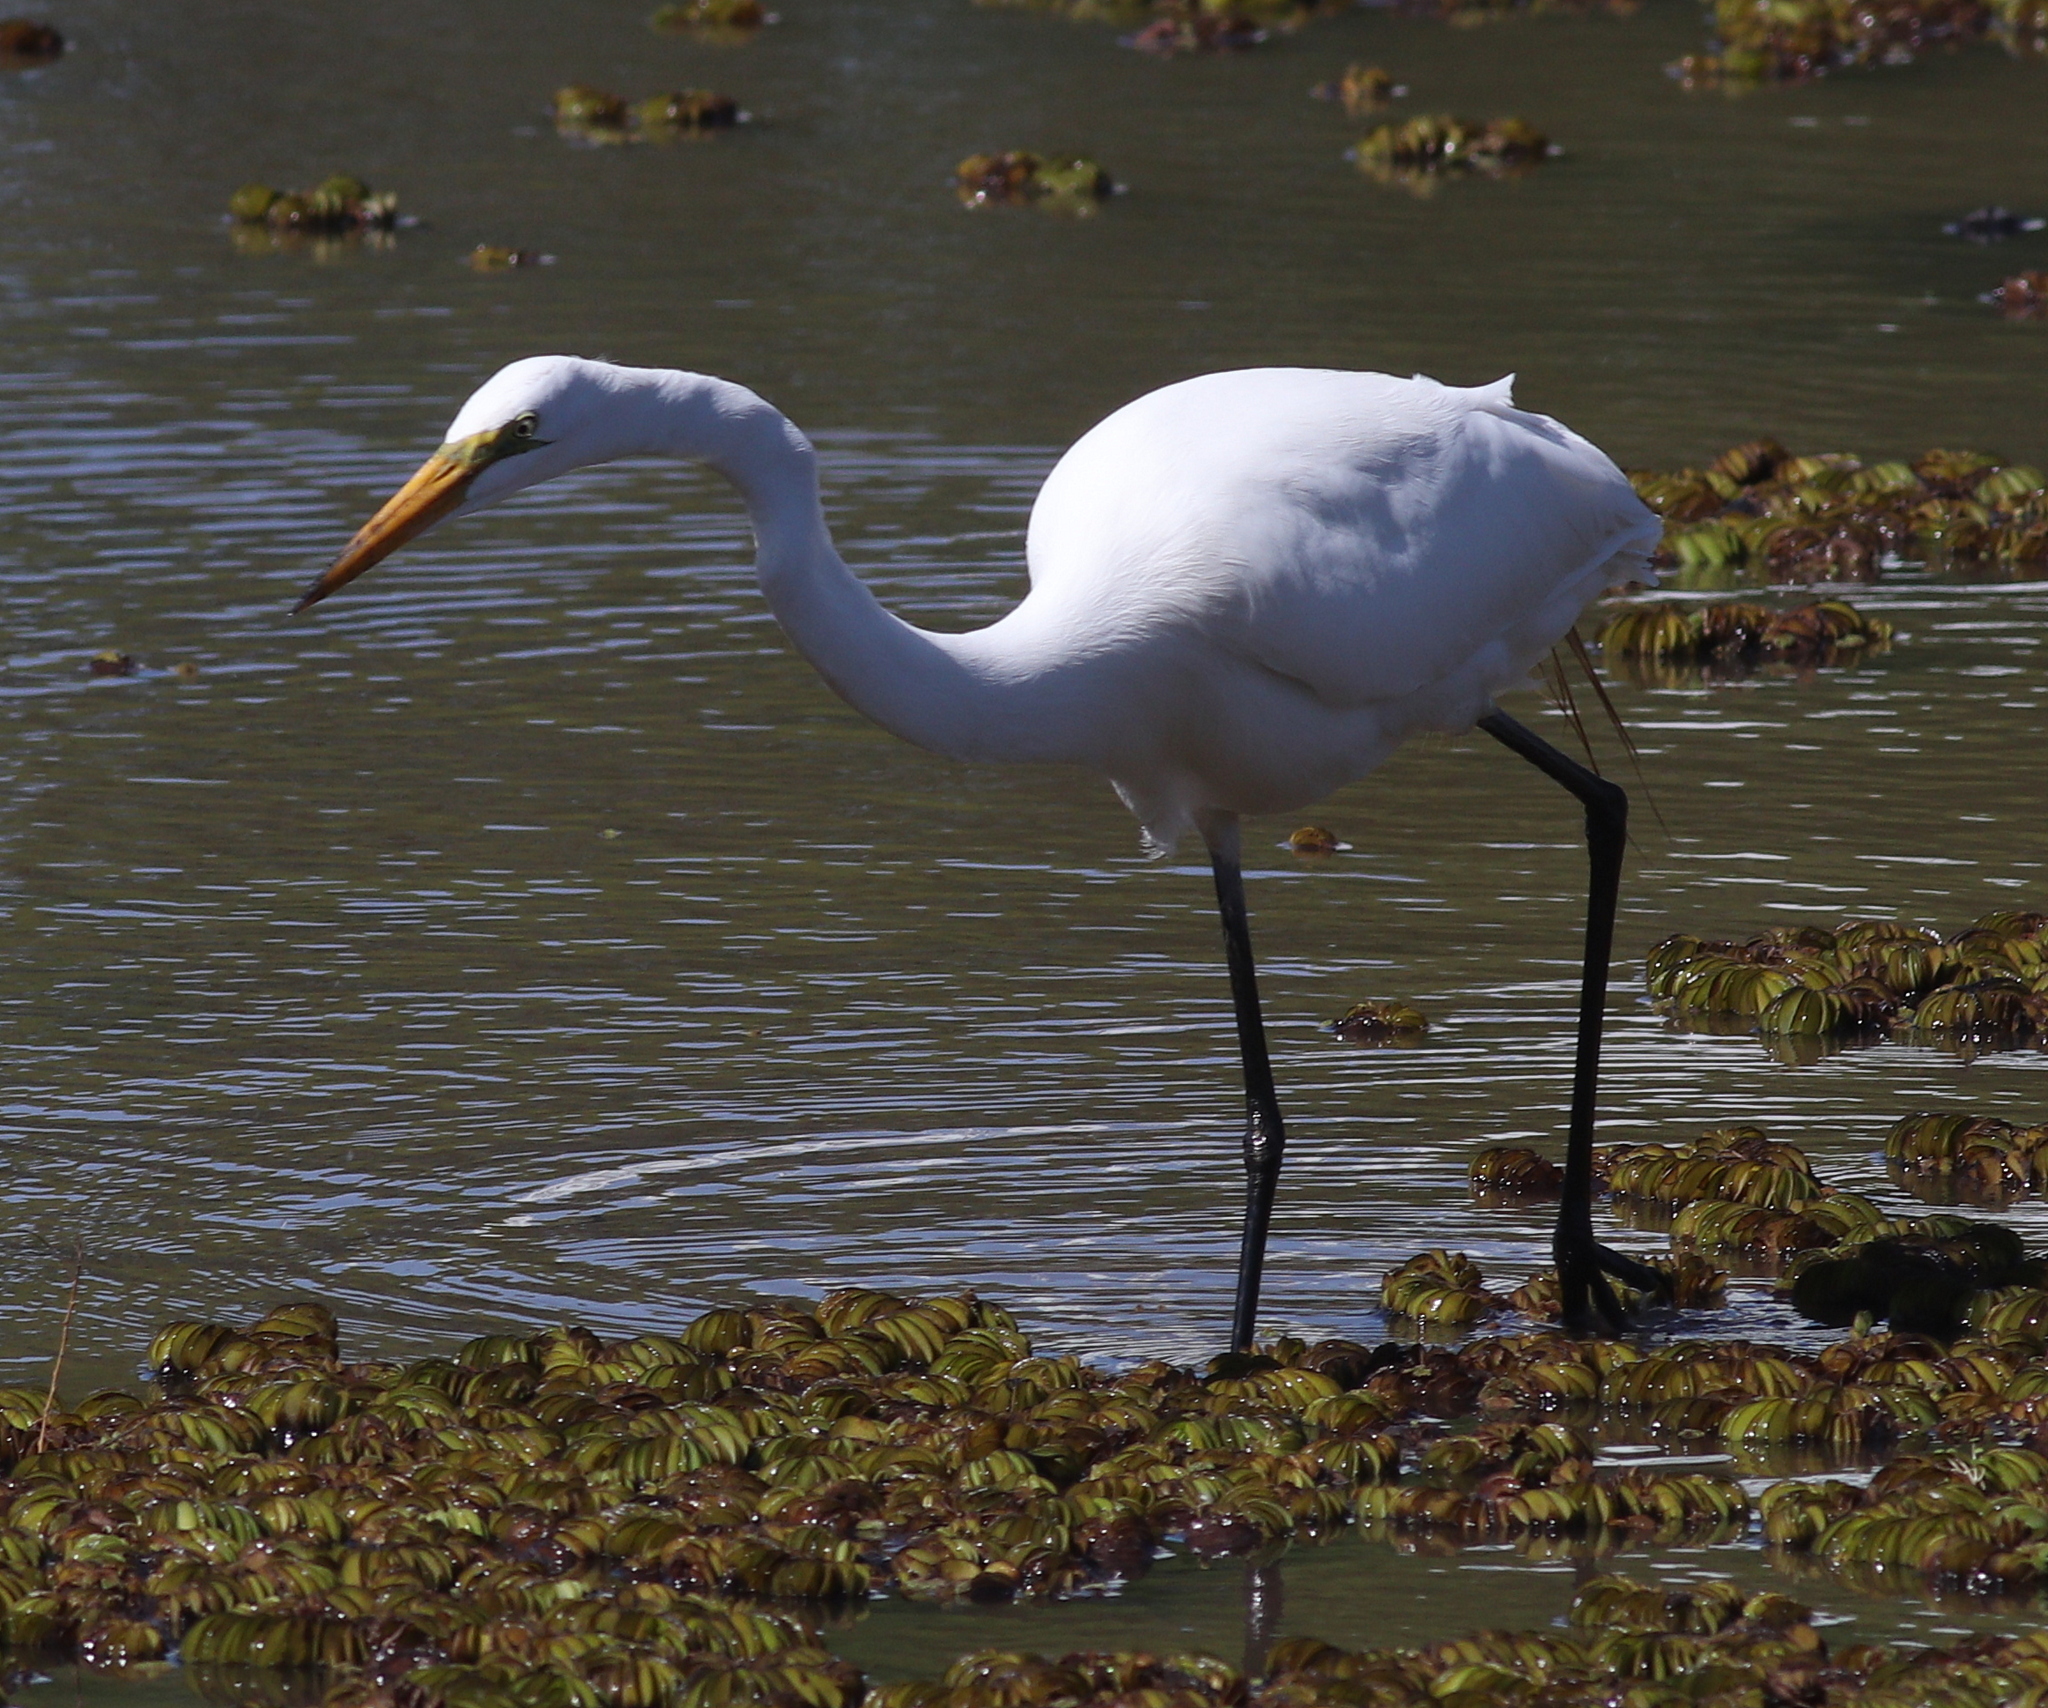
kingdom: Animalia
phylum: Chordata
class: Aves
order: Pelecaniformes
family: Ardeidae
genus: Ardea
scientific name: Ardea alba
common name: Great egret
